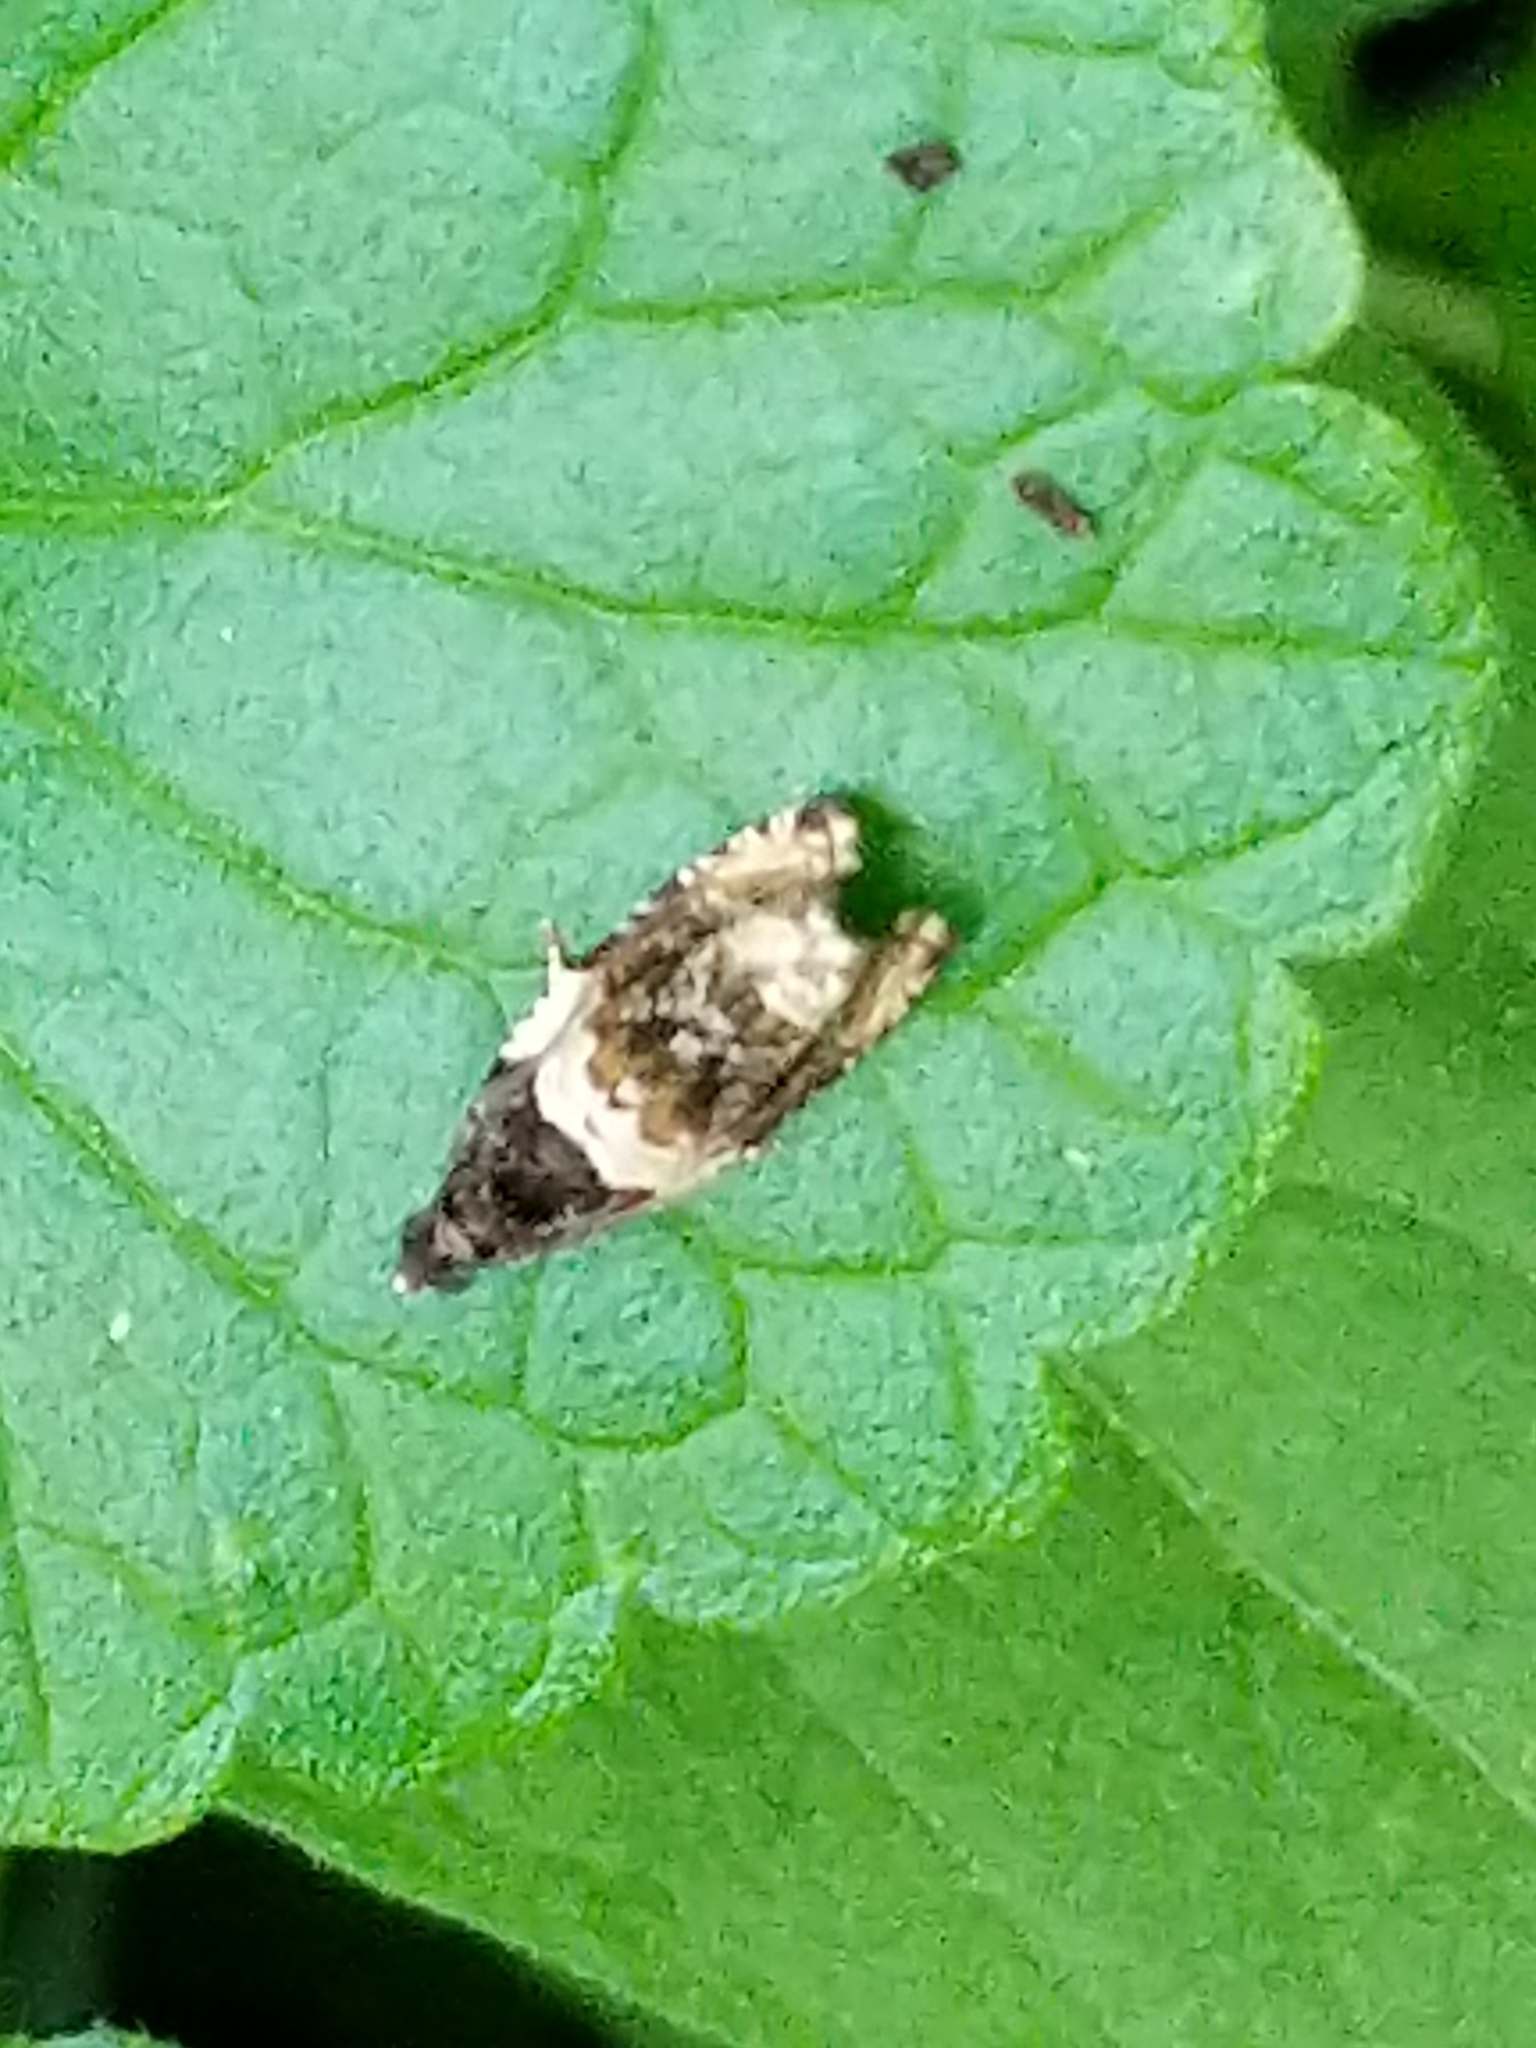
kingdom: Animalia
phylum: Arthropoda
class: Insecta
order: Lepidoptera
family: Tortricidae
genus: Olethreutes
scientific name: Olethreutes fasciatana
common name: Banded olethreutes moth
